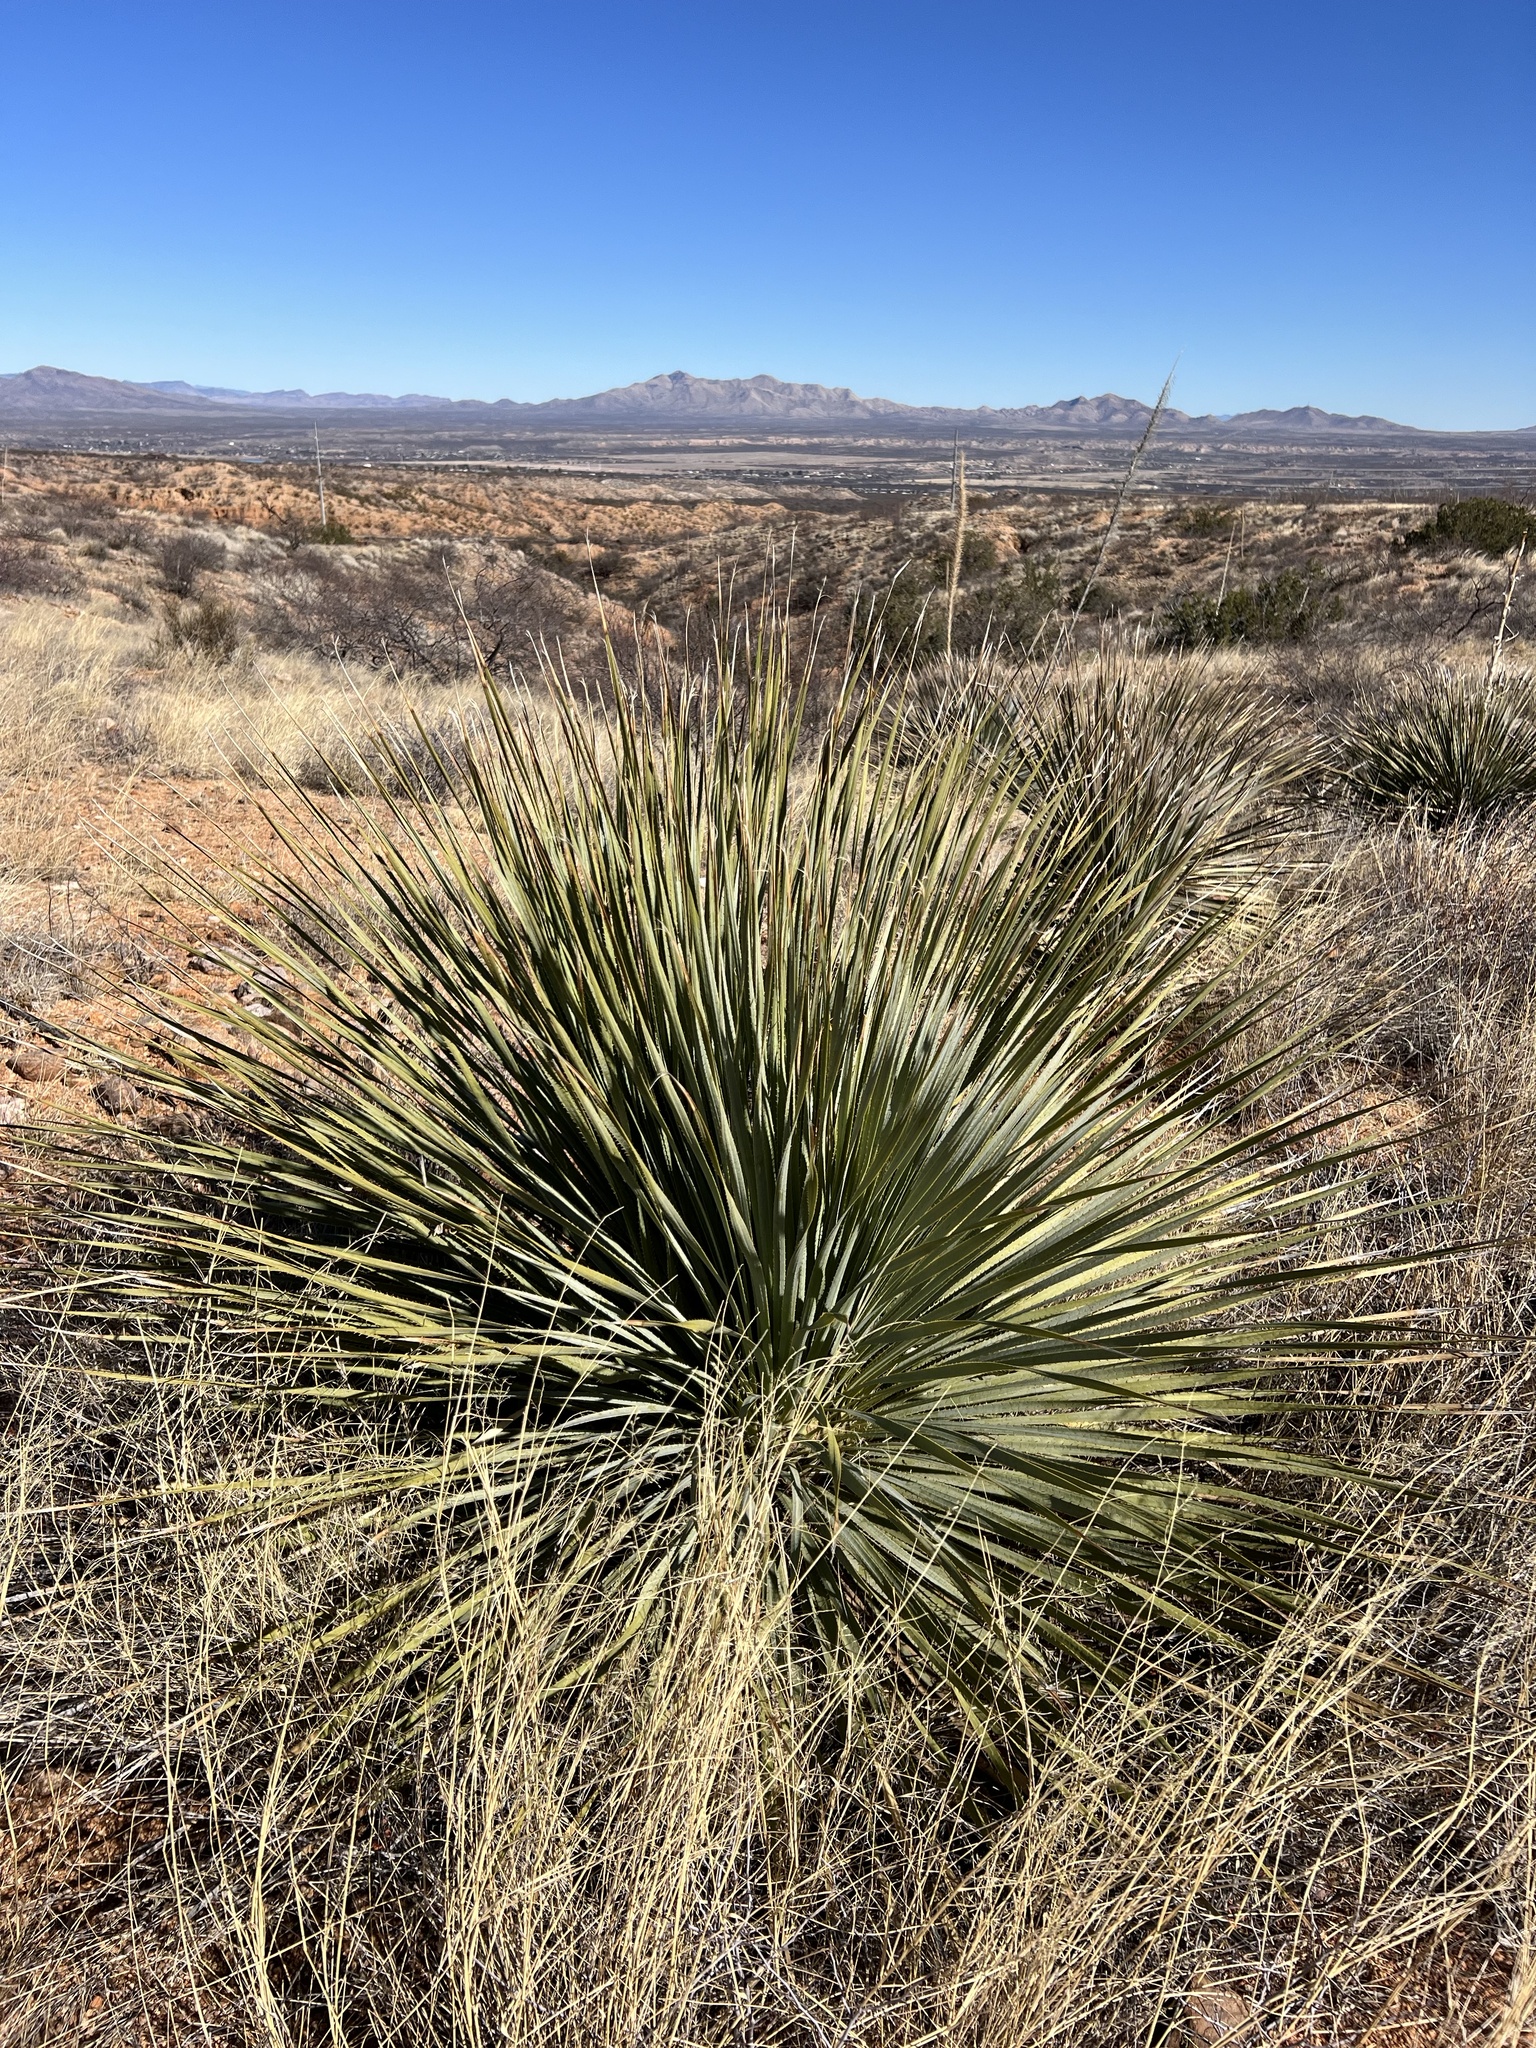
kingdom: Plantae
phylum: Tracheophyta
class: Liliopsida
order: Asparagales
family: Asparagaceae
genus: Dasylirion
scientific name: Dasylirion wheeleri
